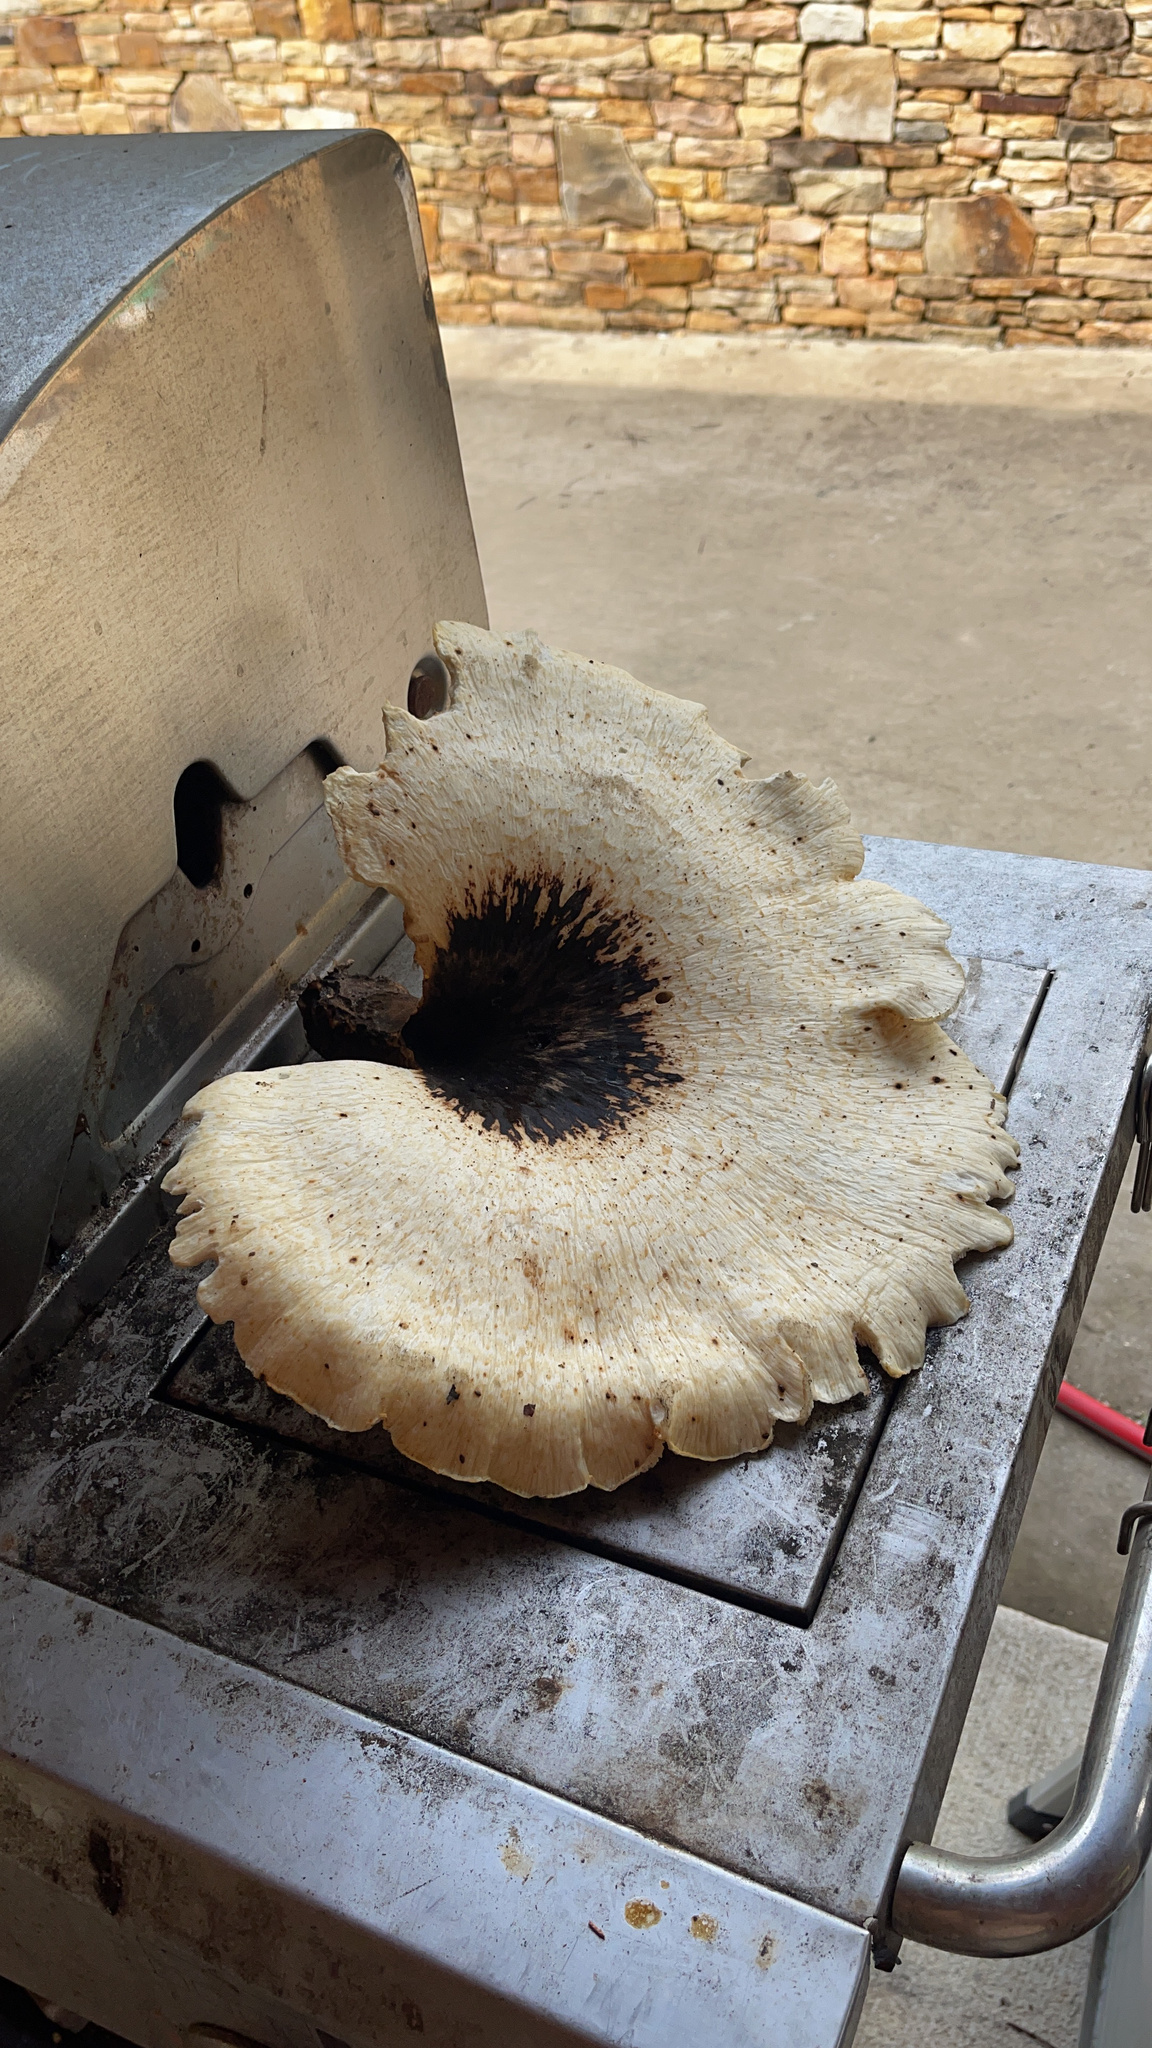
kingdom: Fungi
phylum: Basidiomycota
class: Agaricomycetes
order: Polyporales
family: Polyporaceae
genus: Cerioporus
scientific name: Cerioporus squamosus
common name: Dryad's saddle
